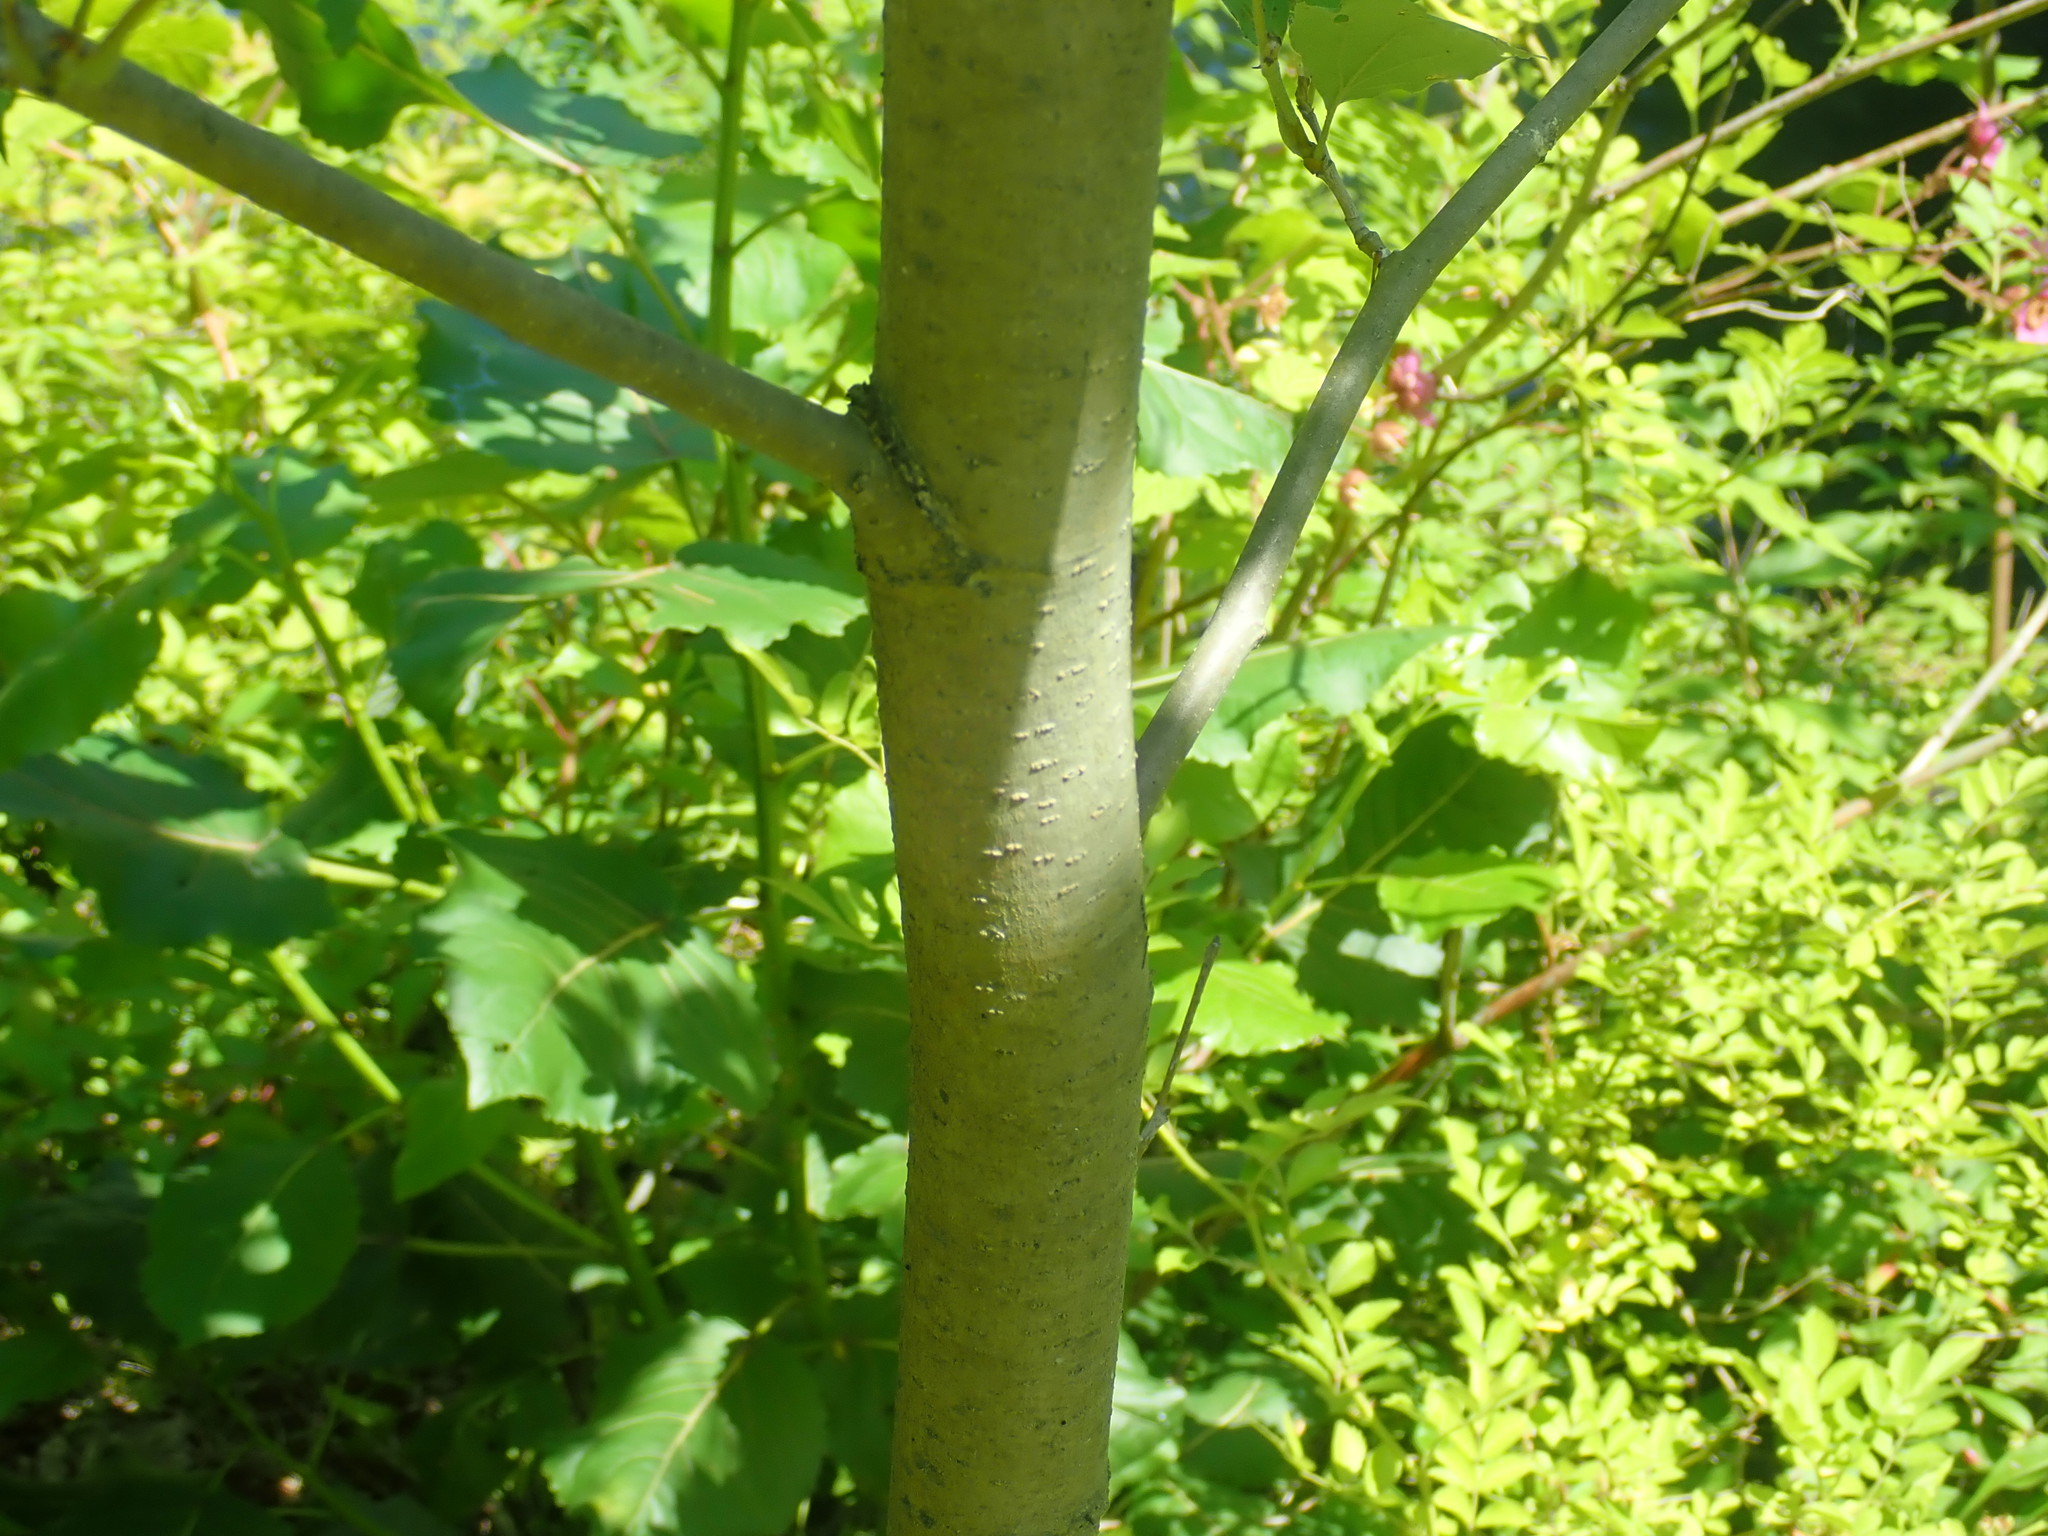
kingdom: Plantae
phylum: Tracheophyta
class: Magnoliopsida
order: Proteales
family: Platanaceae
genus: Platanus
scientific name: Platanus occidentalis
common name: American sycamore
